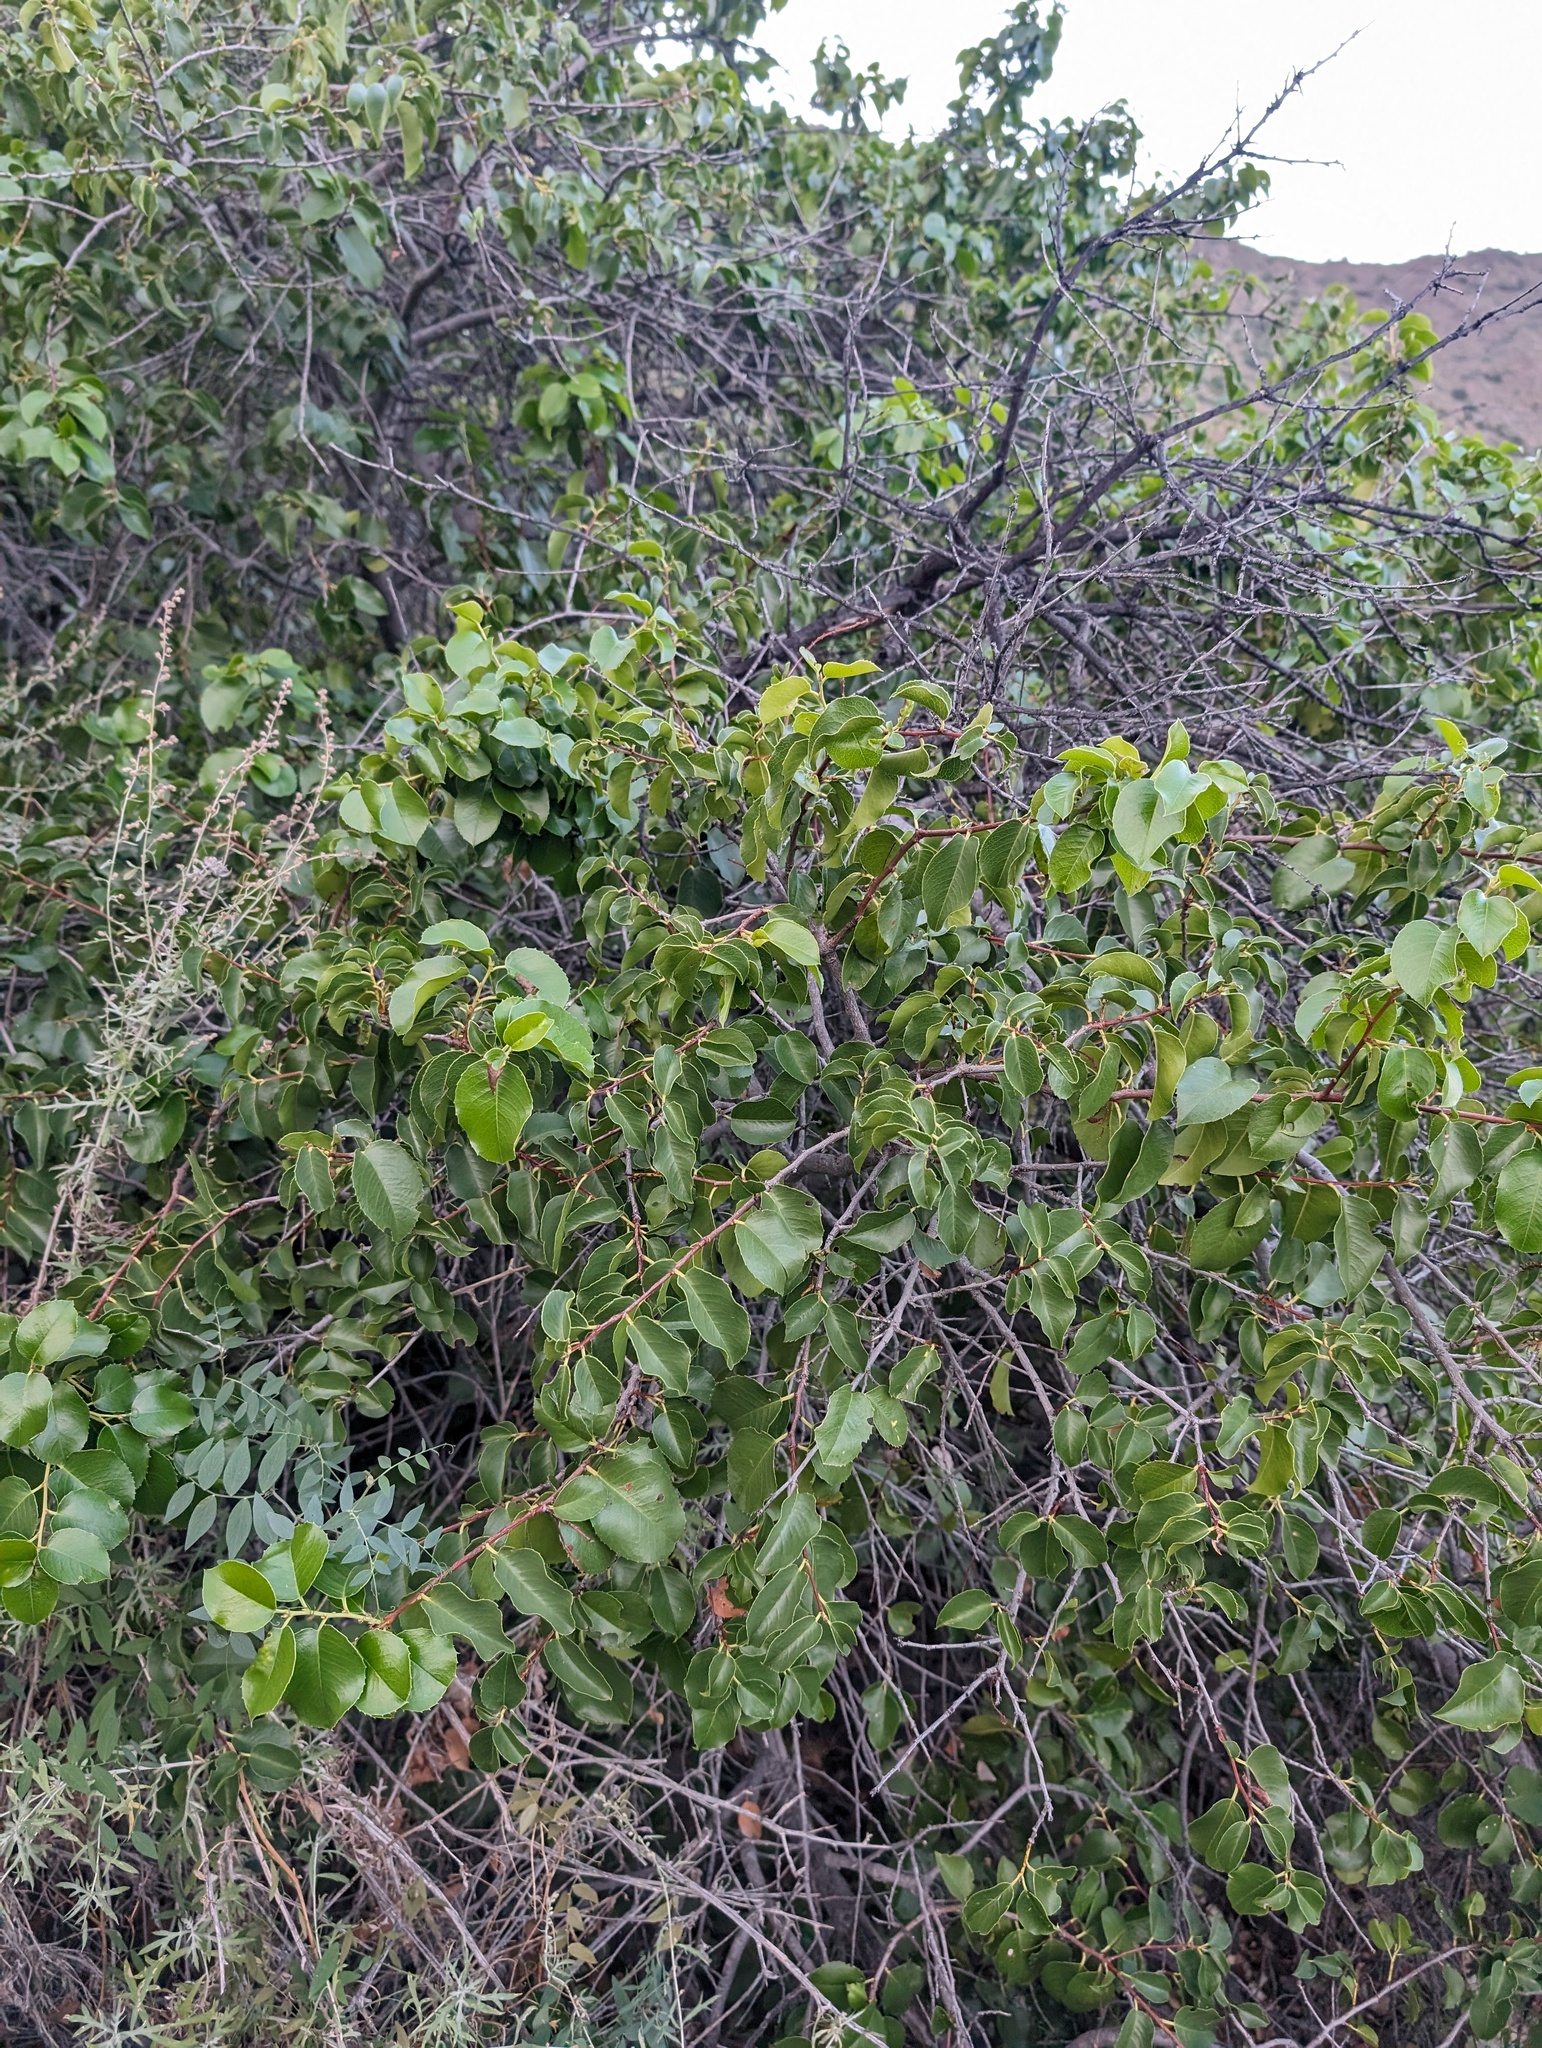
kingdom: Plantae
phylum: Tracheophyta
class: Magnoliopsida
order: Rosales
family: Rosaceae
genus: Prunus
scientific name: Prunus ilicifolia
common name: Hollyleaf cherry
